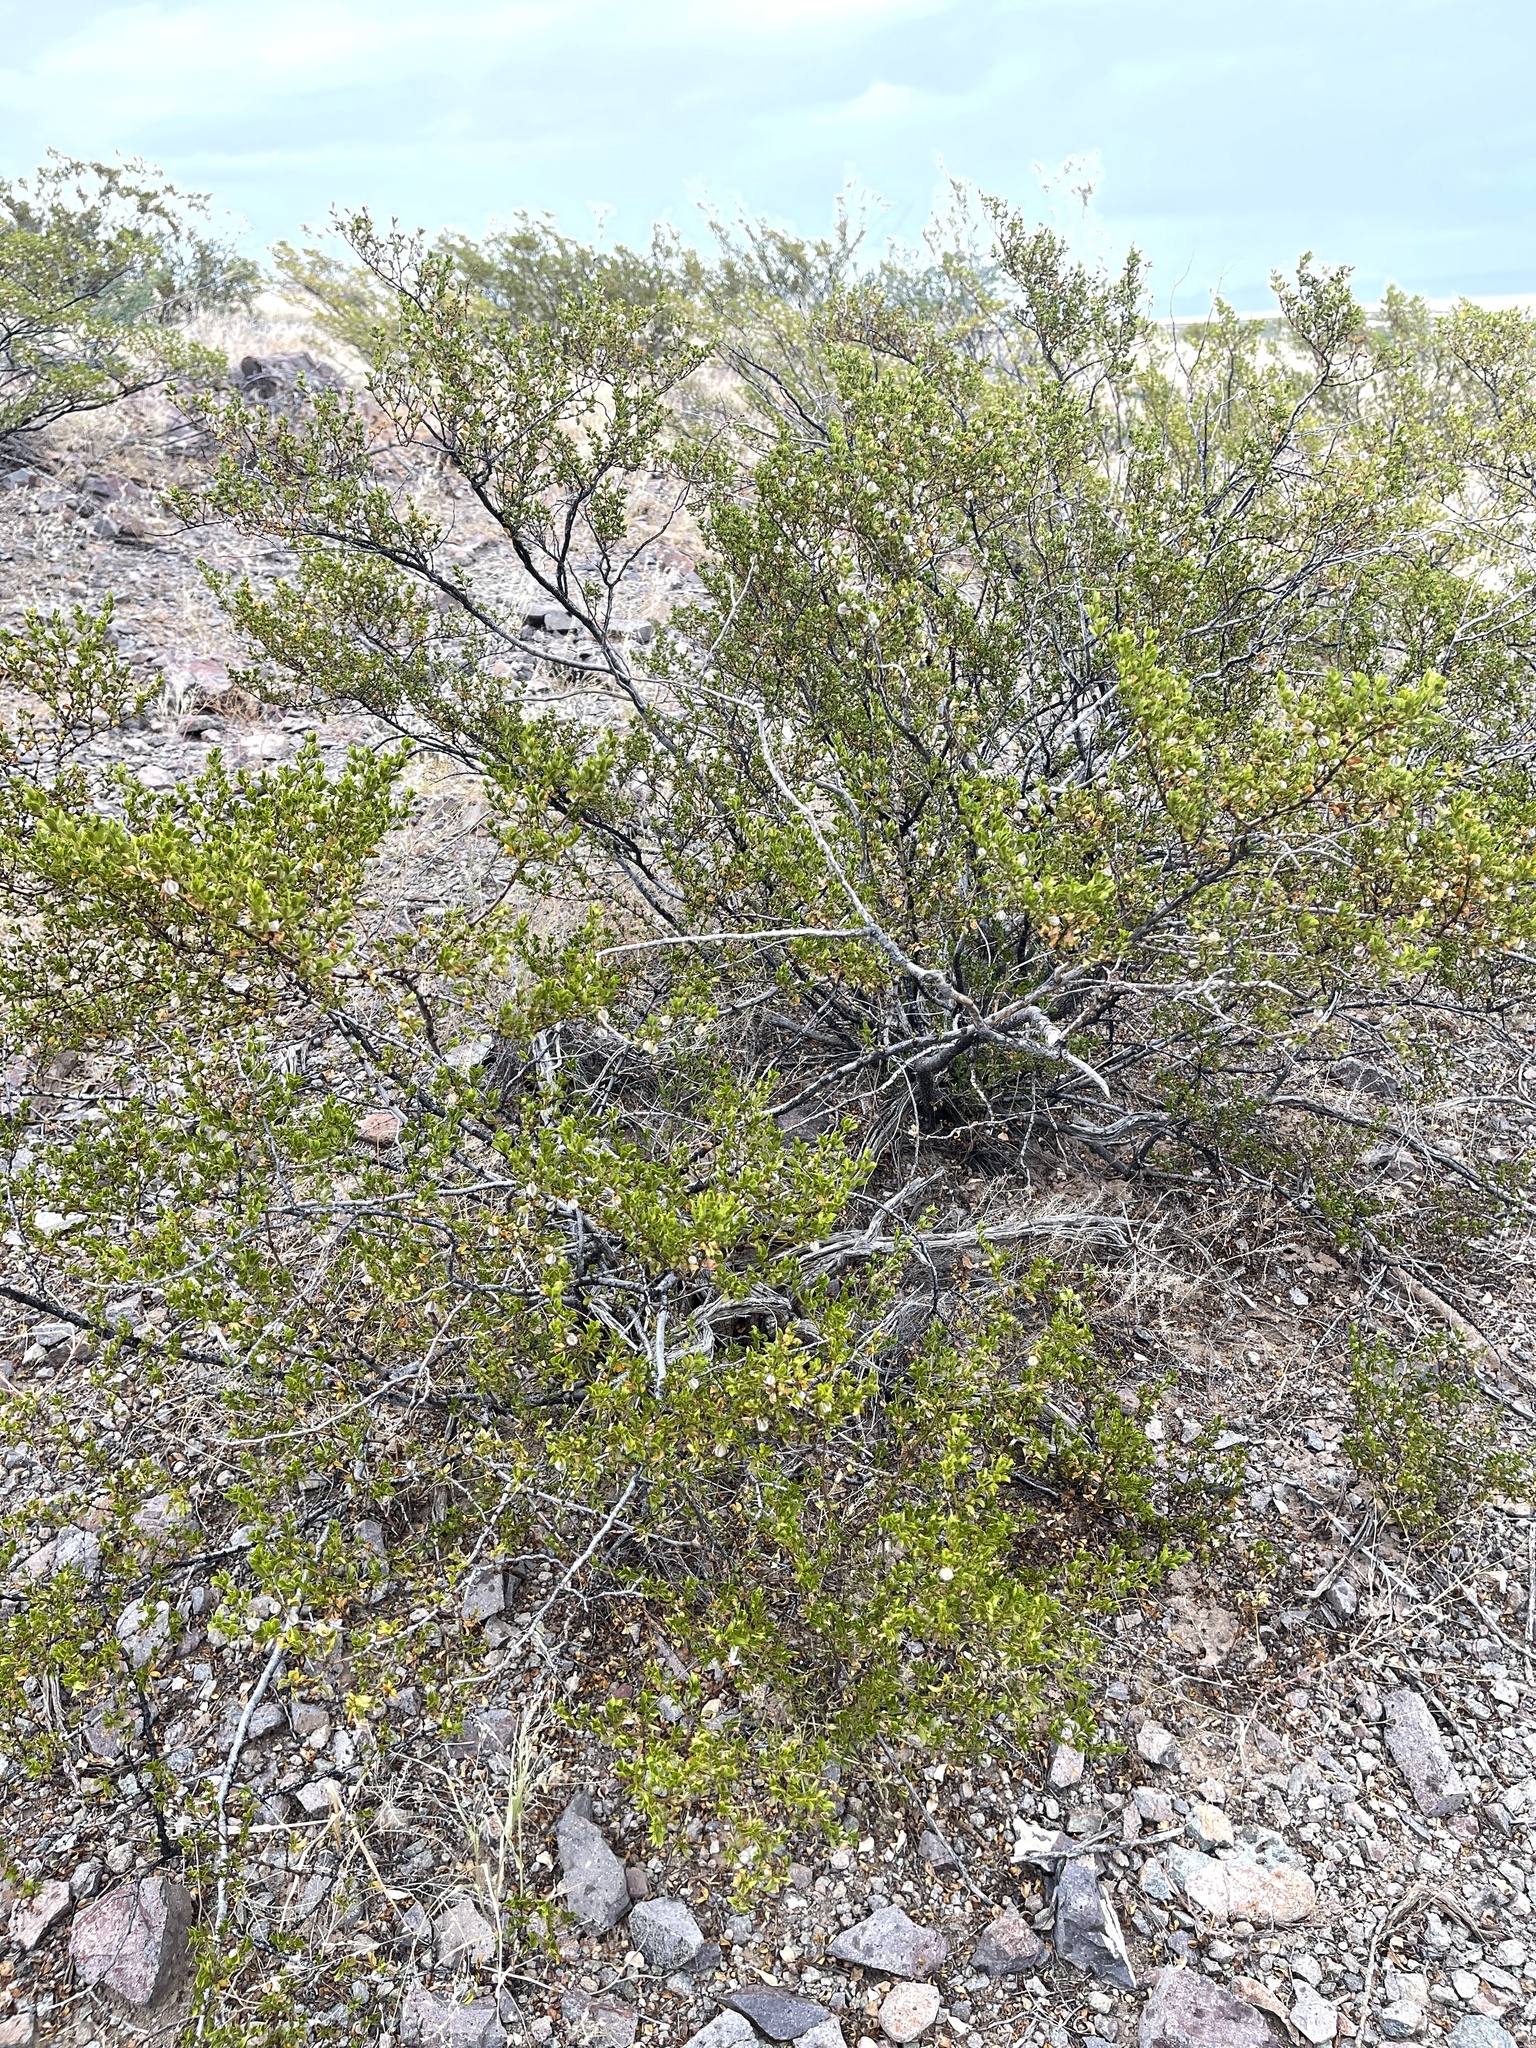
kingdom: Plantae
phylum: Tracheophyta
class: Magnoliopsida
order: Zygophyllales
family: Zygophyllaceae
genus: Larrea
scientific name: Larrea tridentata
